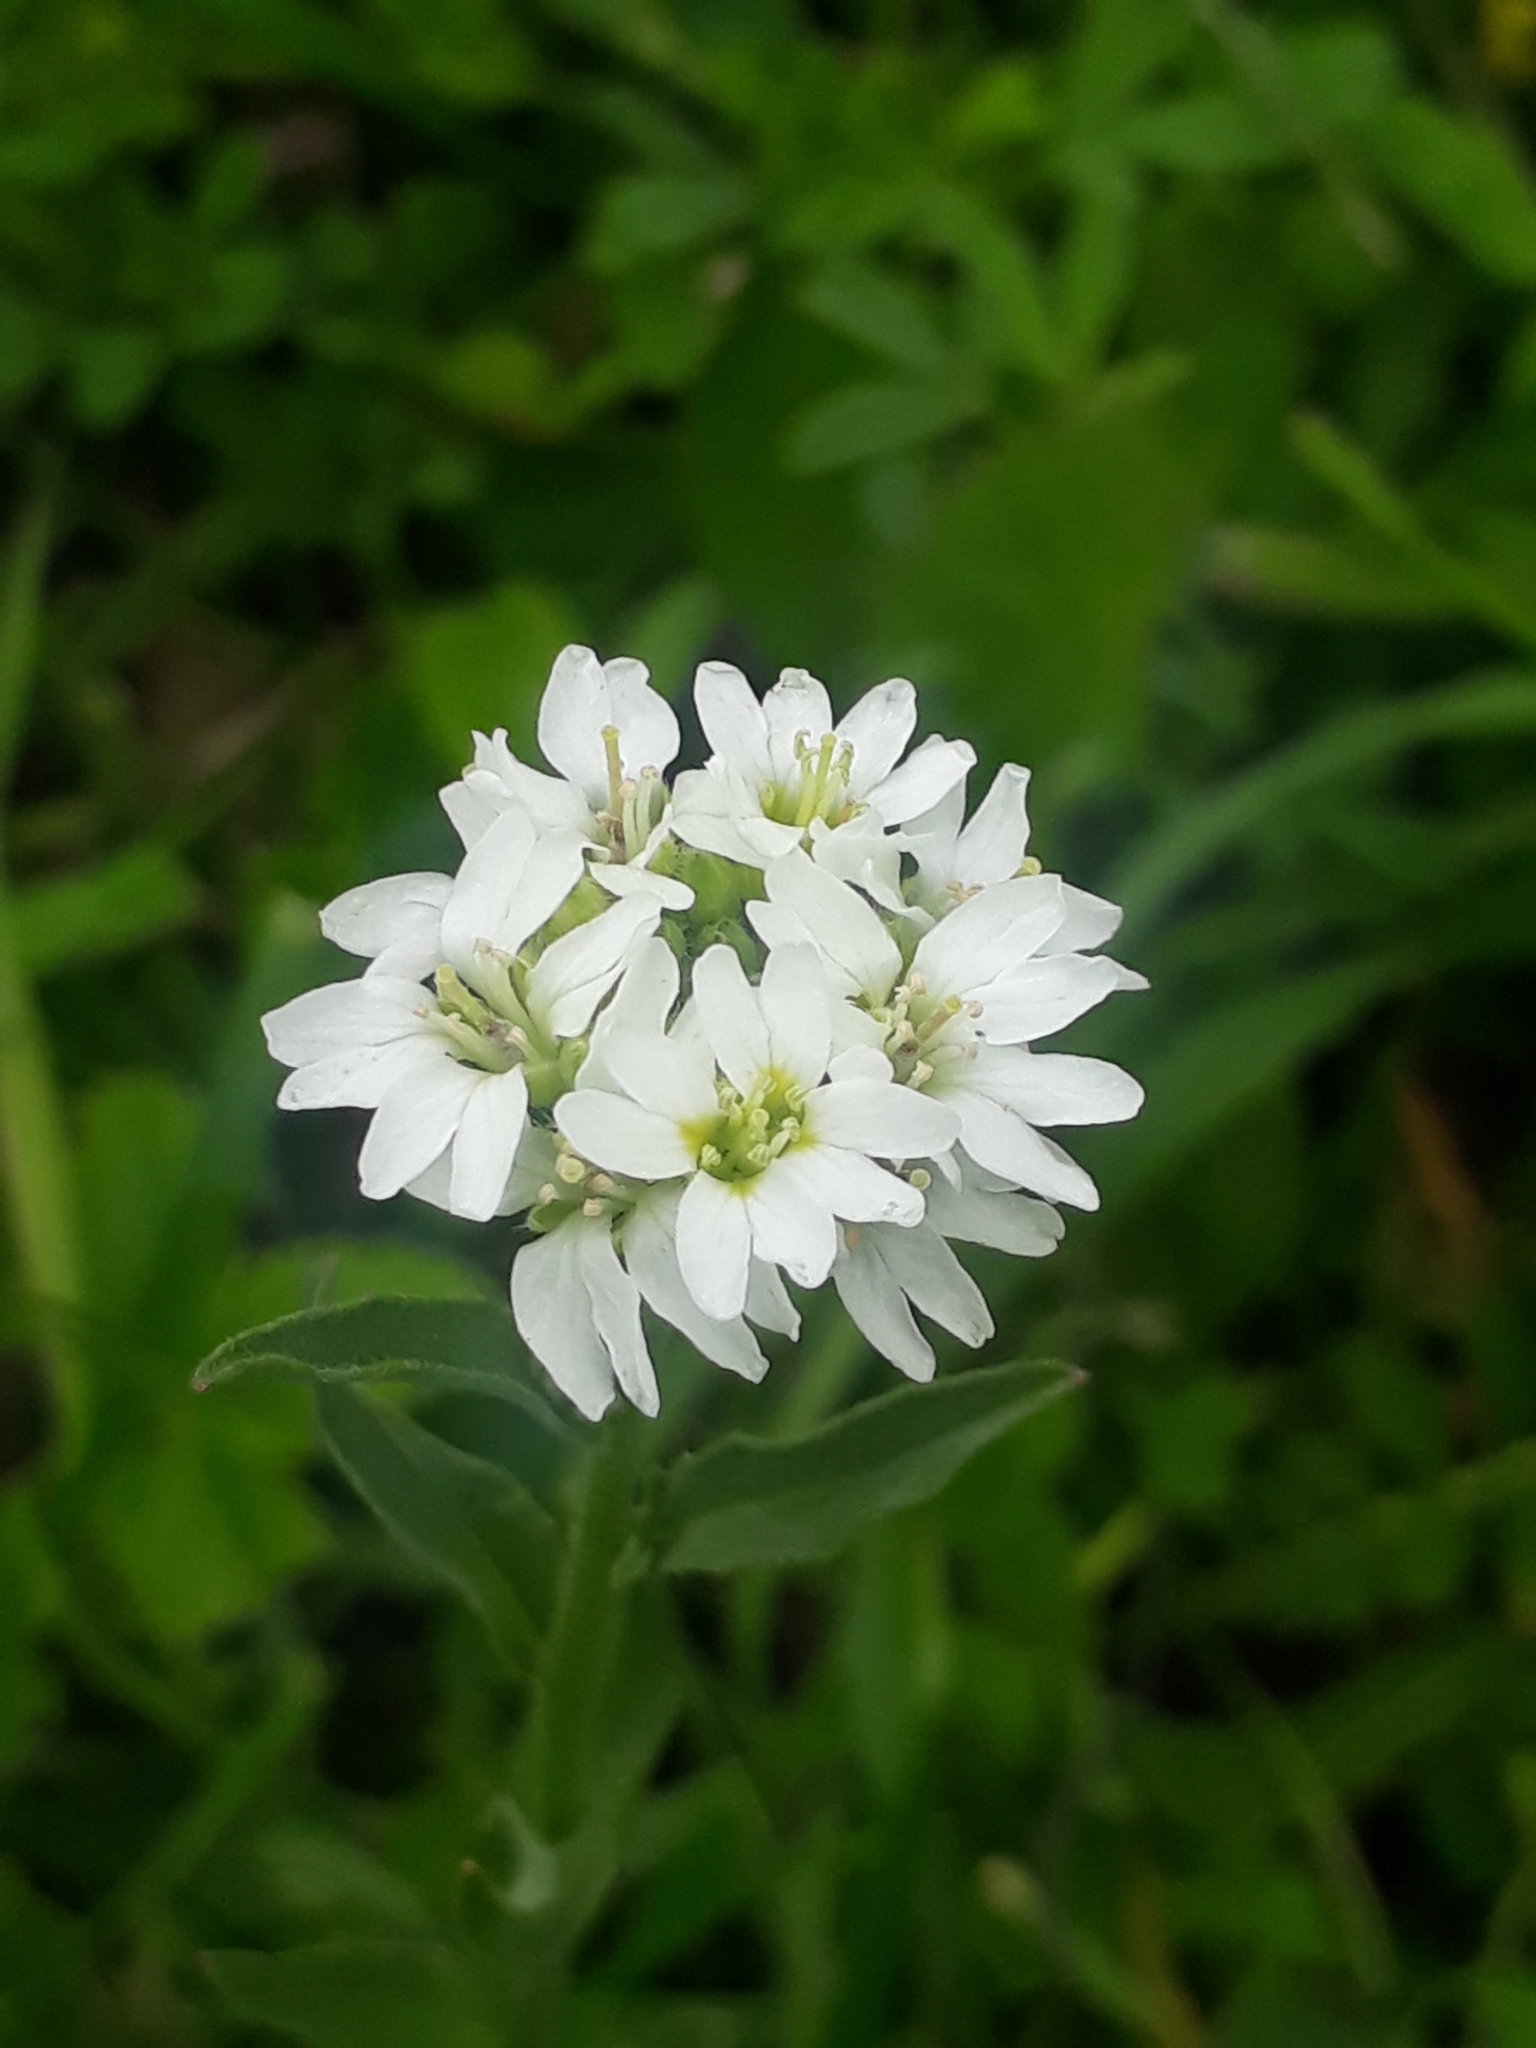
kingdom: Plantae
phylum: Tracheophyta
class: Magnoliopsida
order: Brassicales
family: Brassicaceae
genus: Berteroa
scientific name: Berteroa incana
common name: Hoary alison
